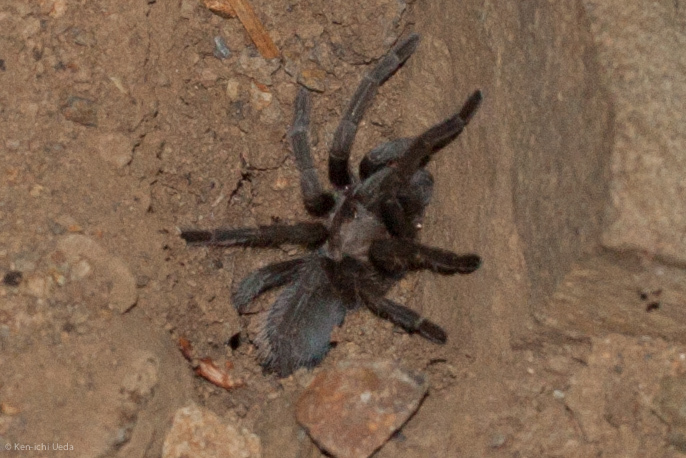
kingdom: Animalia
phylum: Arthropoda
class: Arachnida
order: Araneae
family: Theraphosidae
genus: Aphonopelma
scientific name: Aphonopelma iodius
